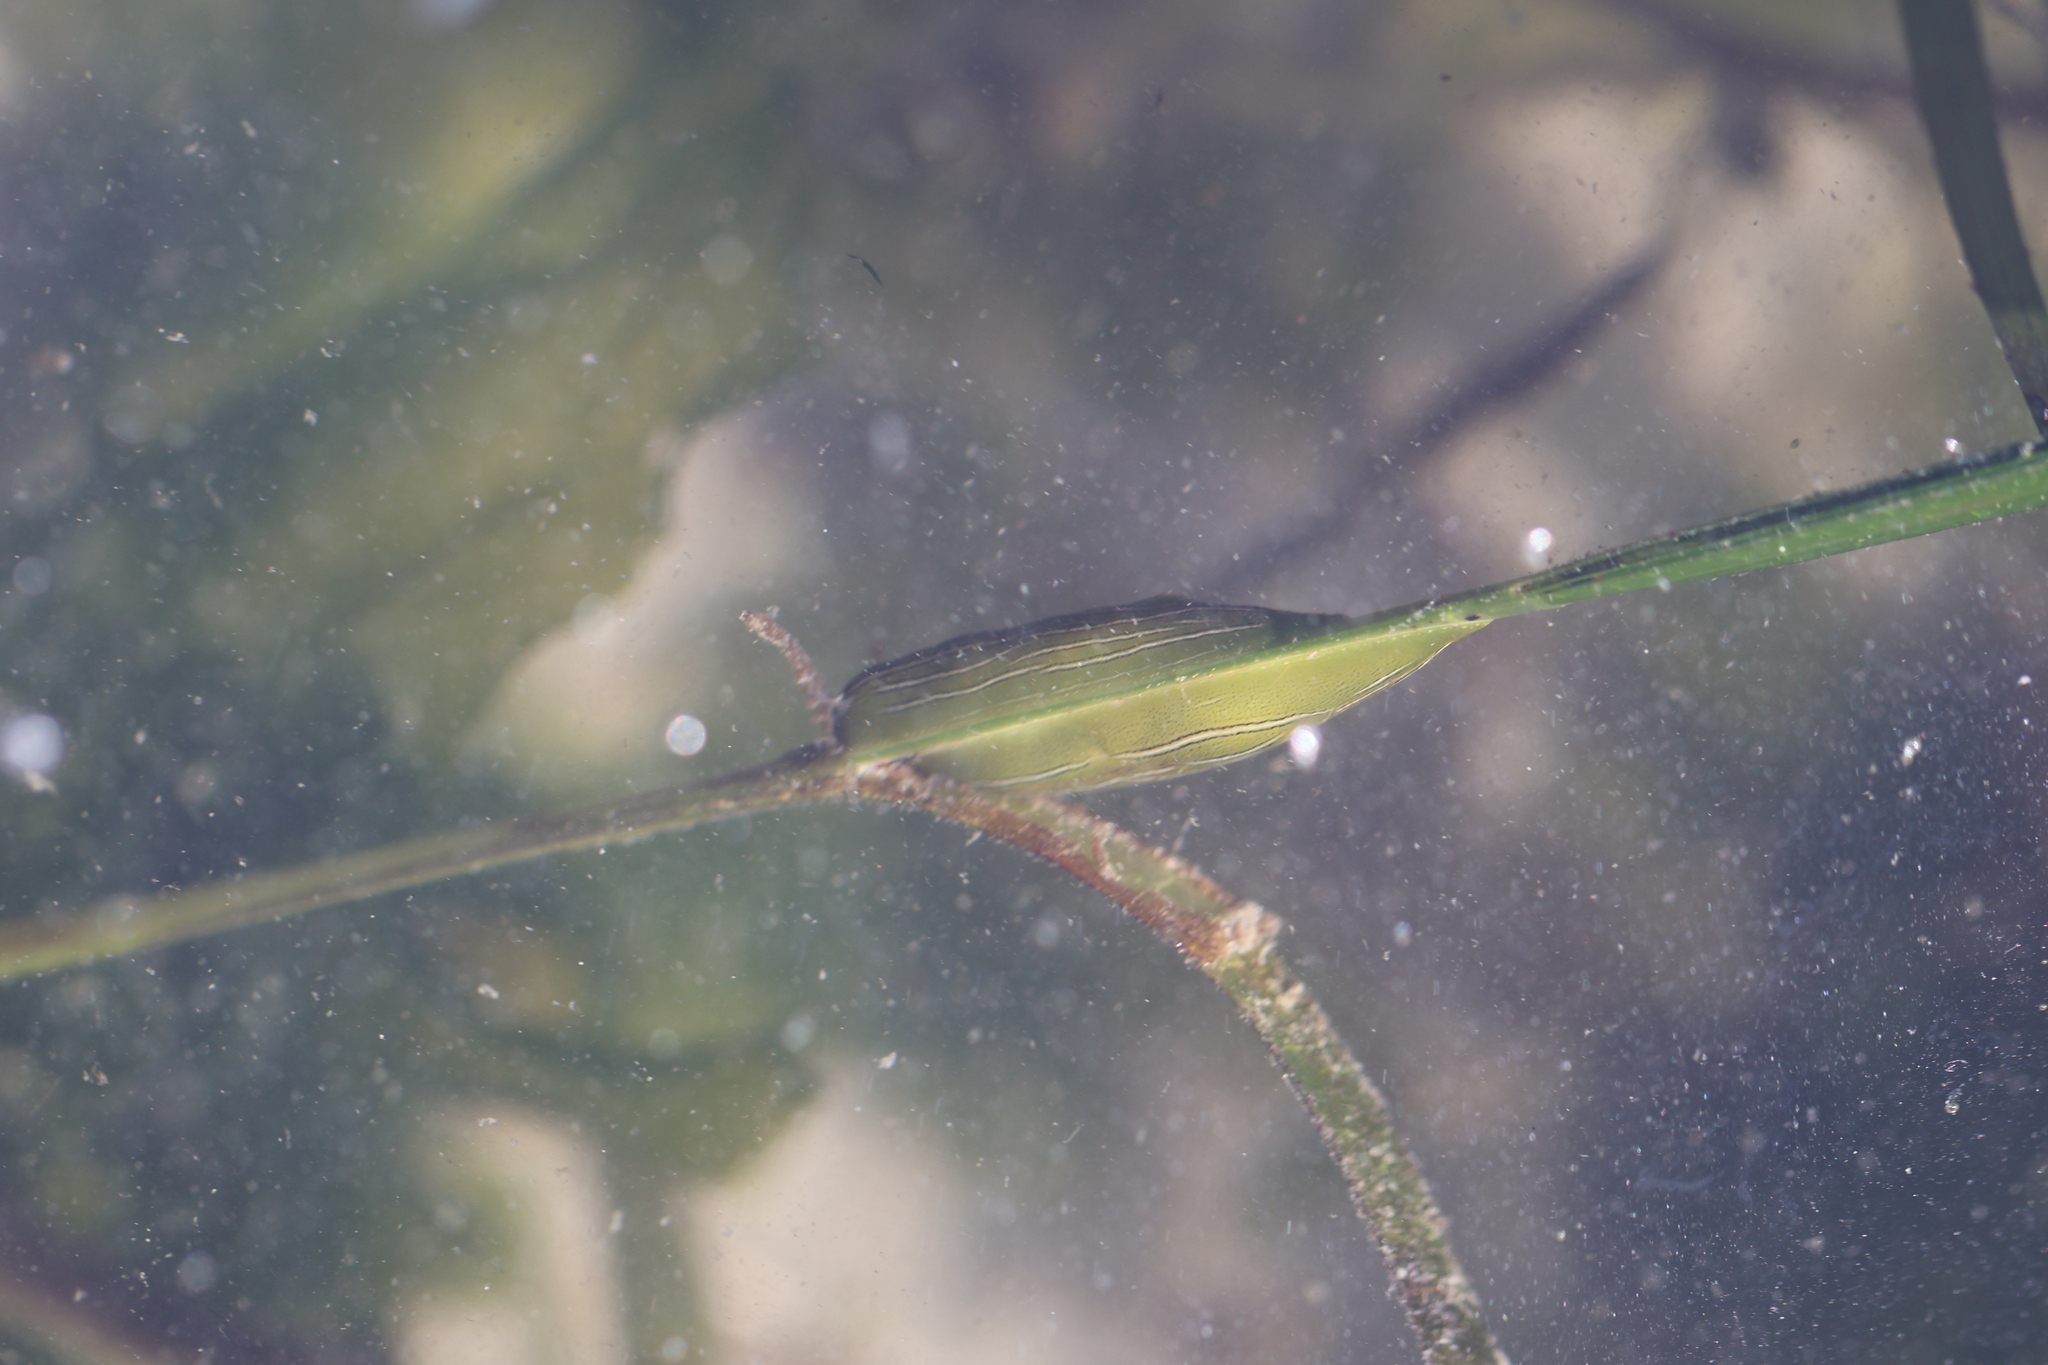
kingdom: Animalia
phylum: Mollusca
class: Gastropoda
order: Aplysiida
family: Aplysiidae
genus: Phyllaplysia
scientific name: Phyllaplysia taylori
